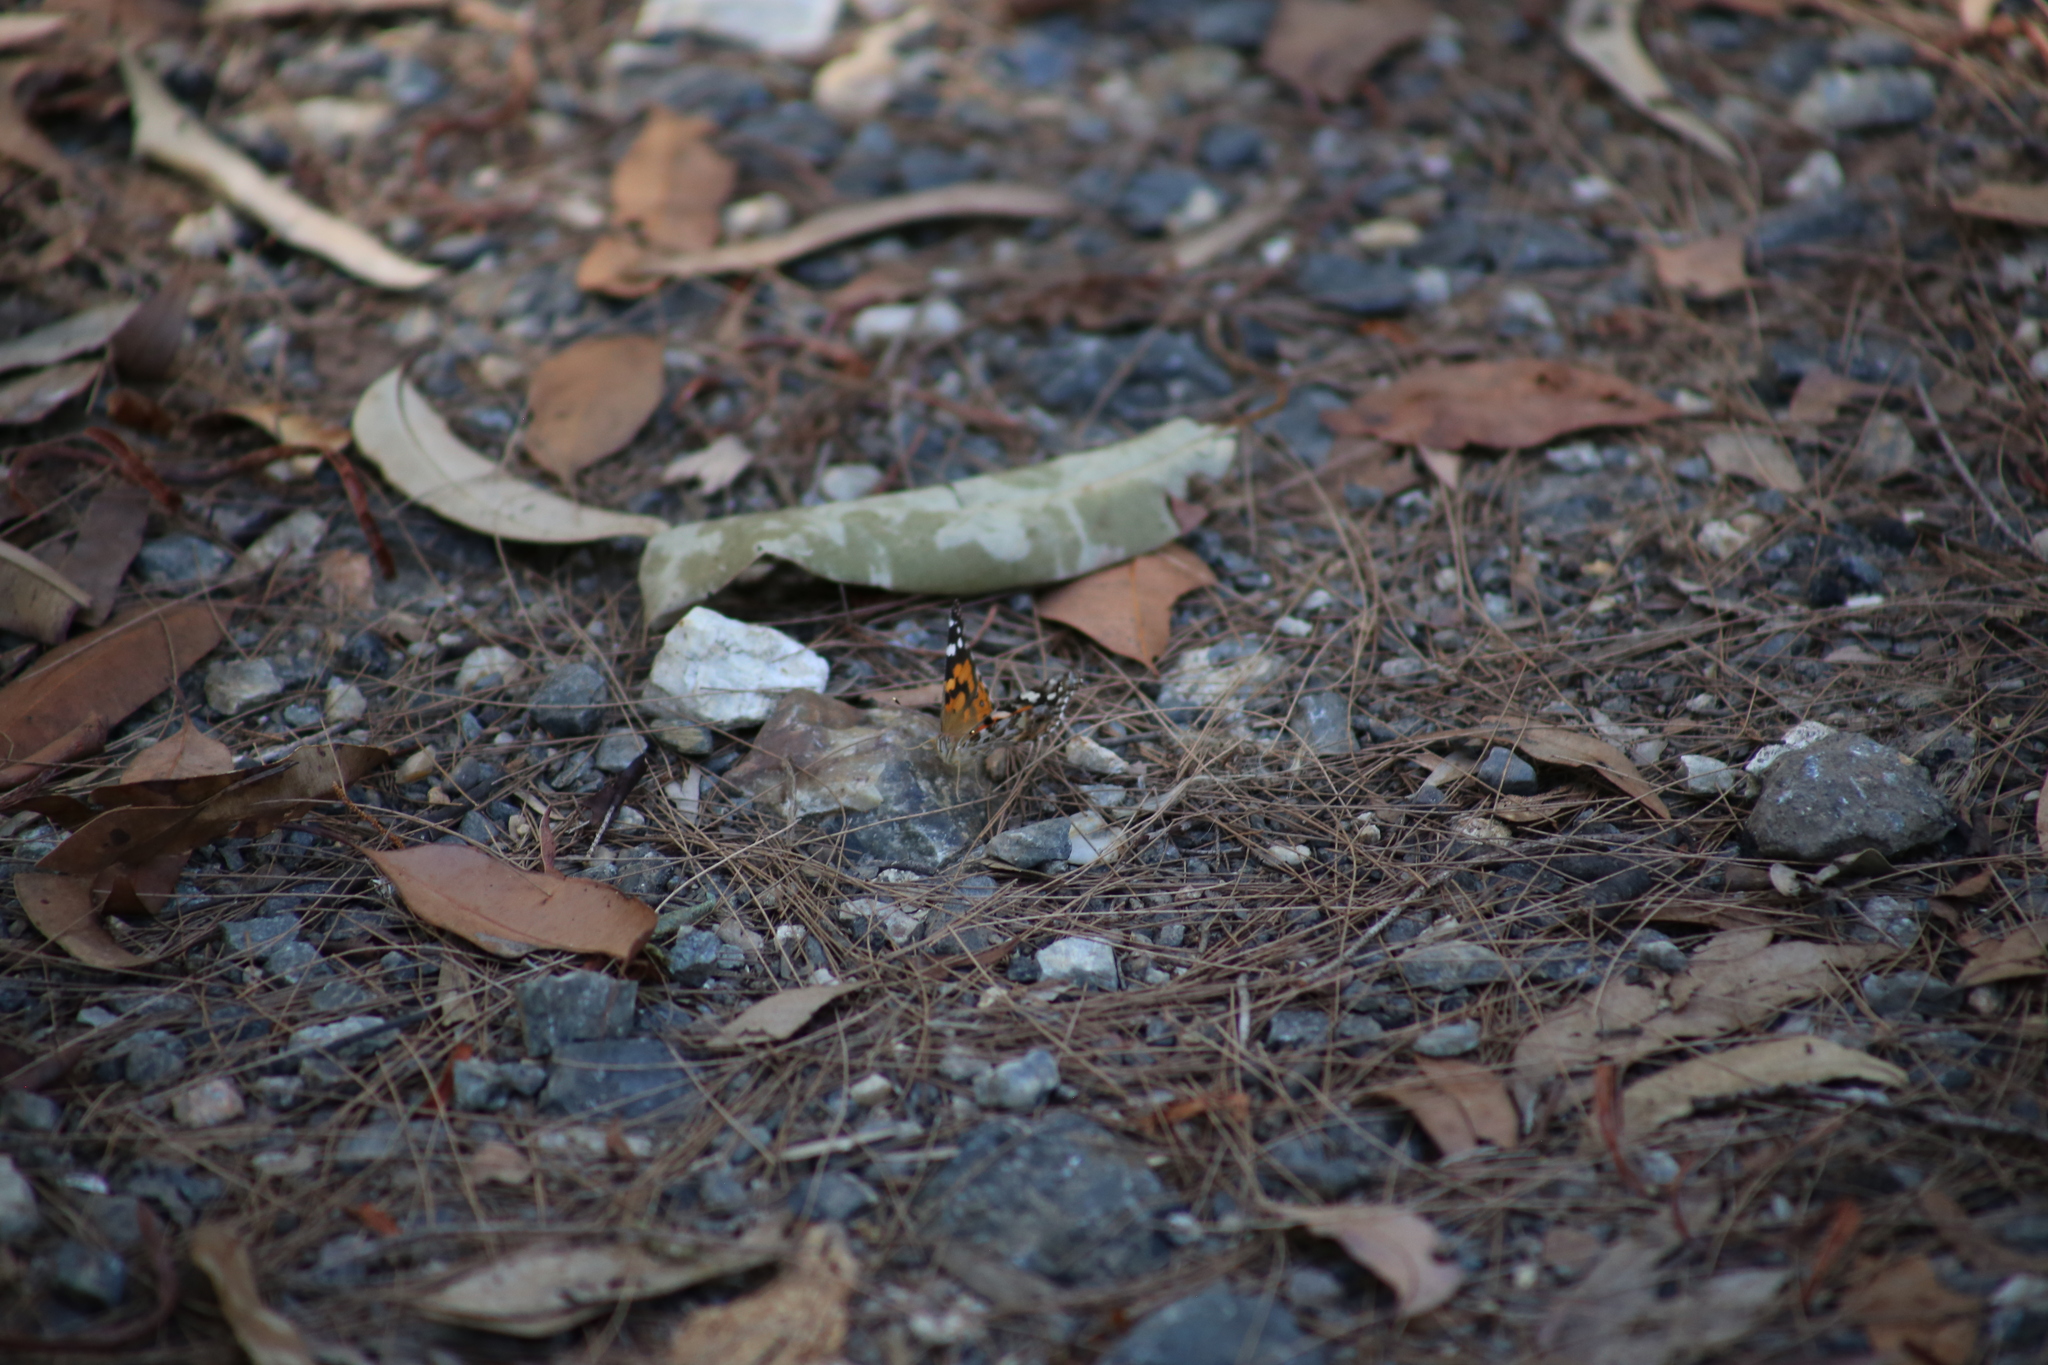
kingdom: Animalia
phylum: Arthropoda
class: Insecta
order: Lepidoptera
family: Nymphalidae
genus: Vanessa
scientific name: Vanessa kershawi
